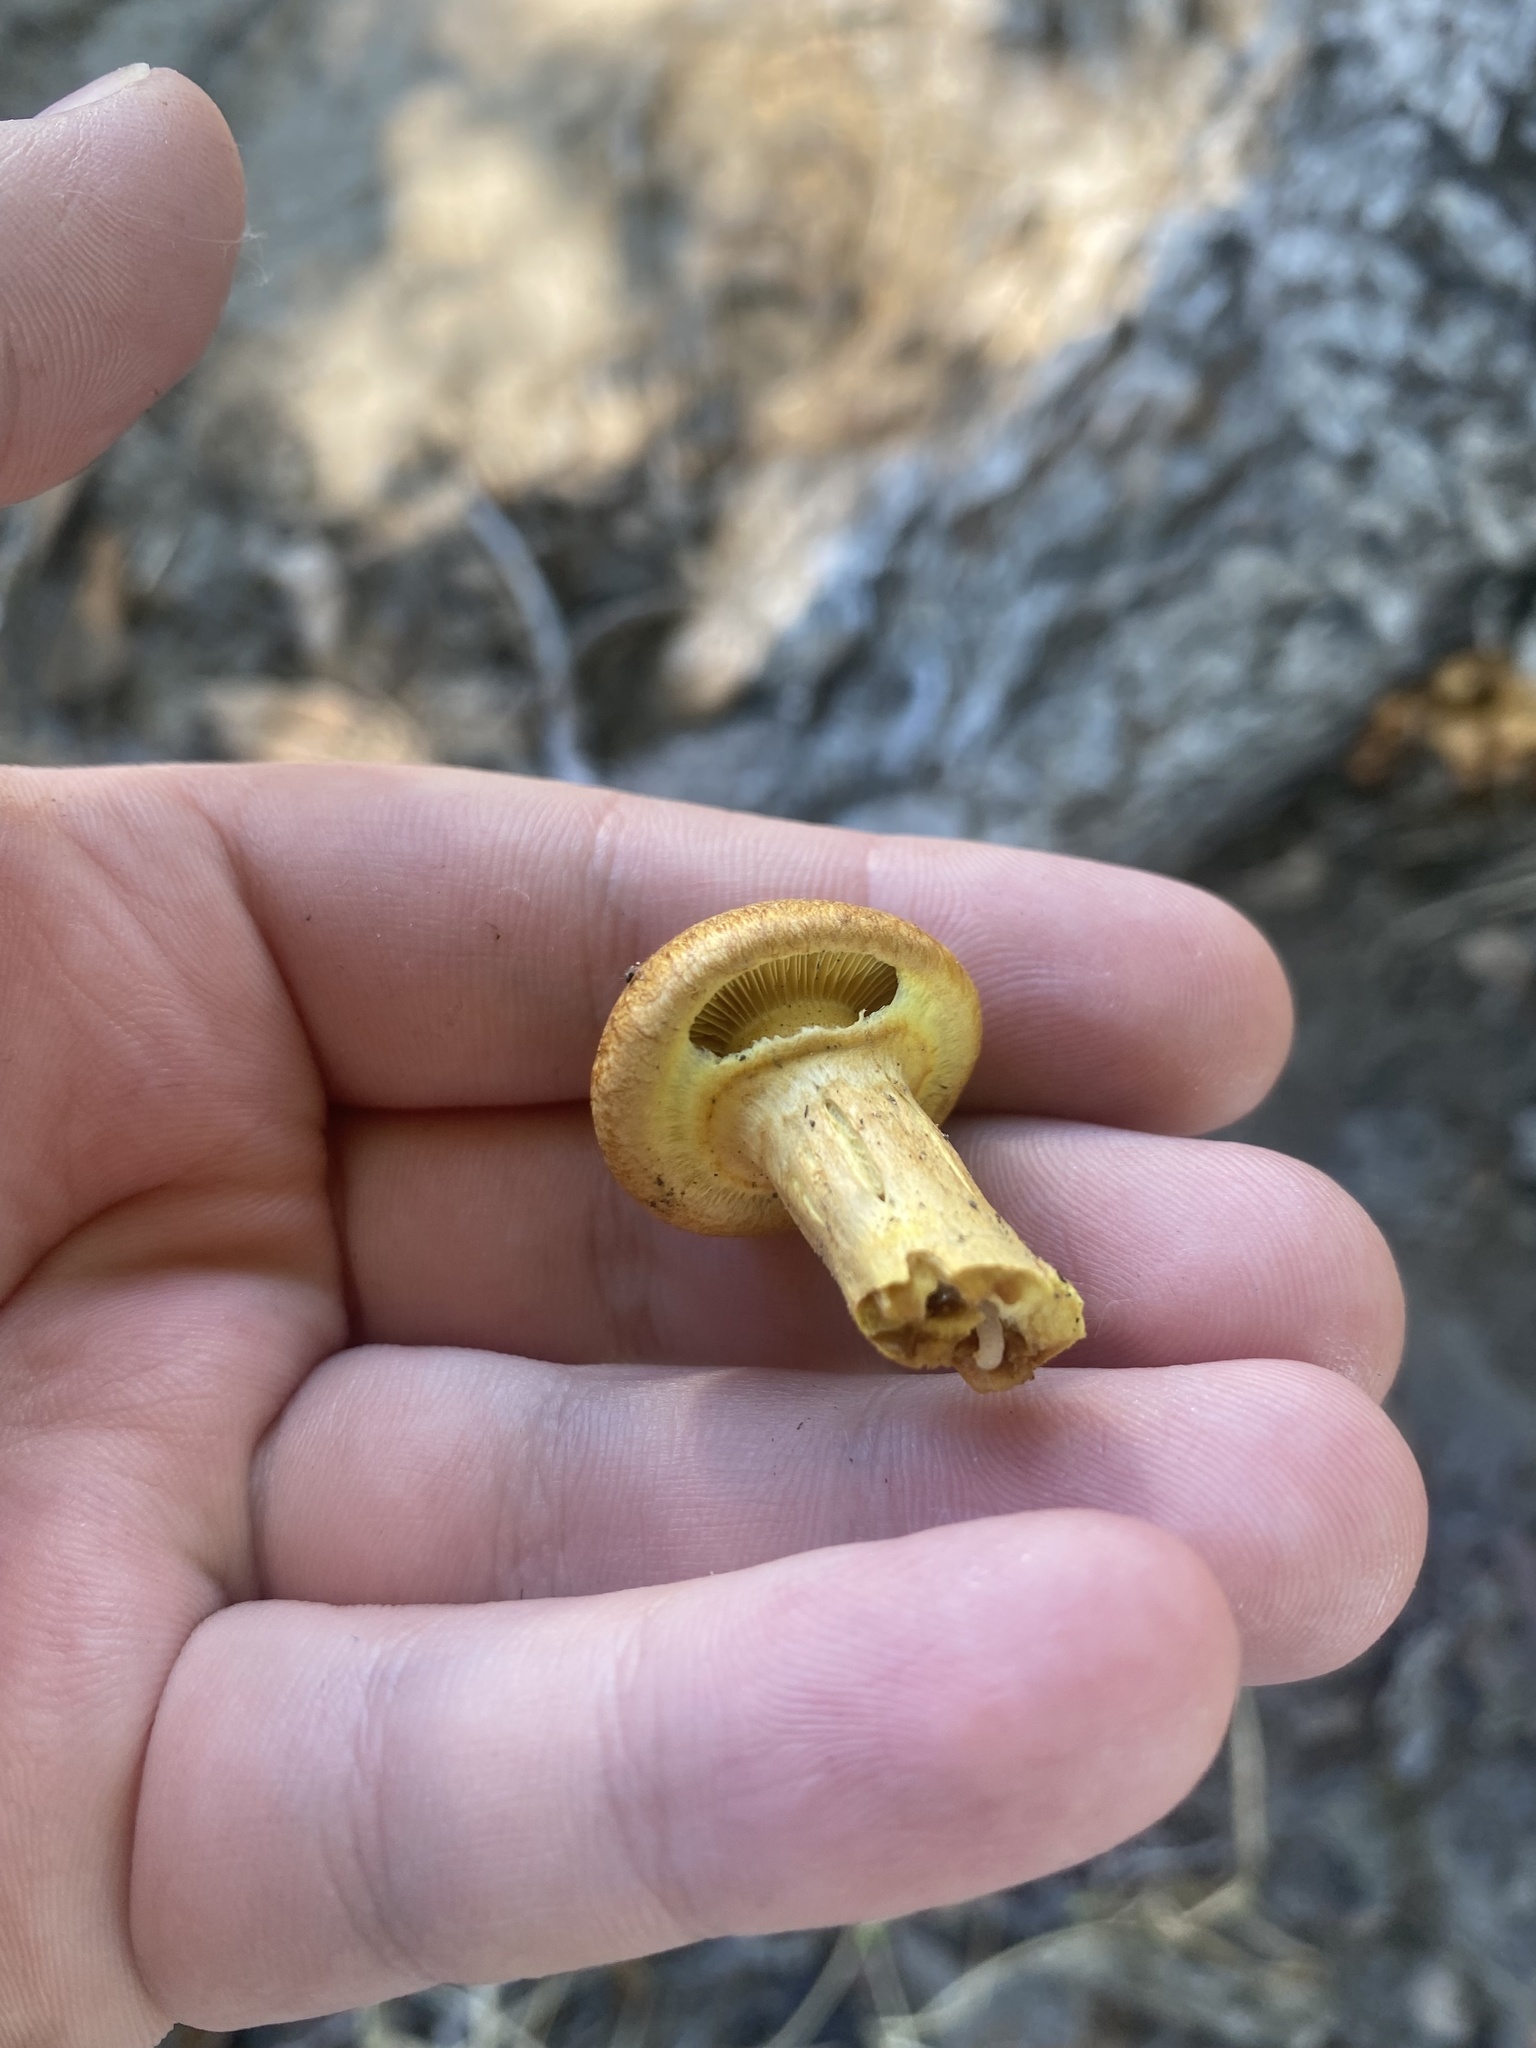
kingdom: Fungi
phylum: Basidiomycota
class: Agaricomycetes
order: Agaricales
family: Hymenogastraceae
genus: Gymnopilus
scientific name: Gymnopilus junonius
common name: Spectacular rustgill
